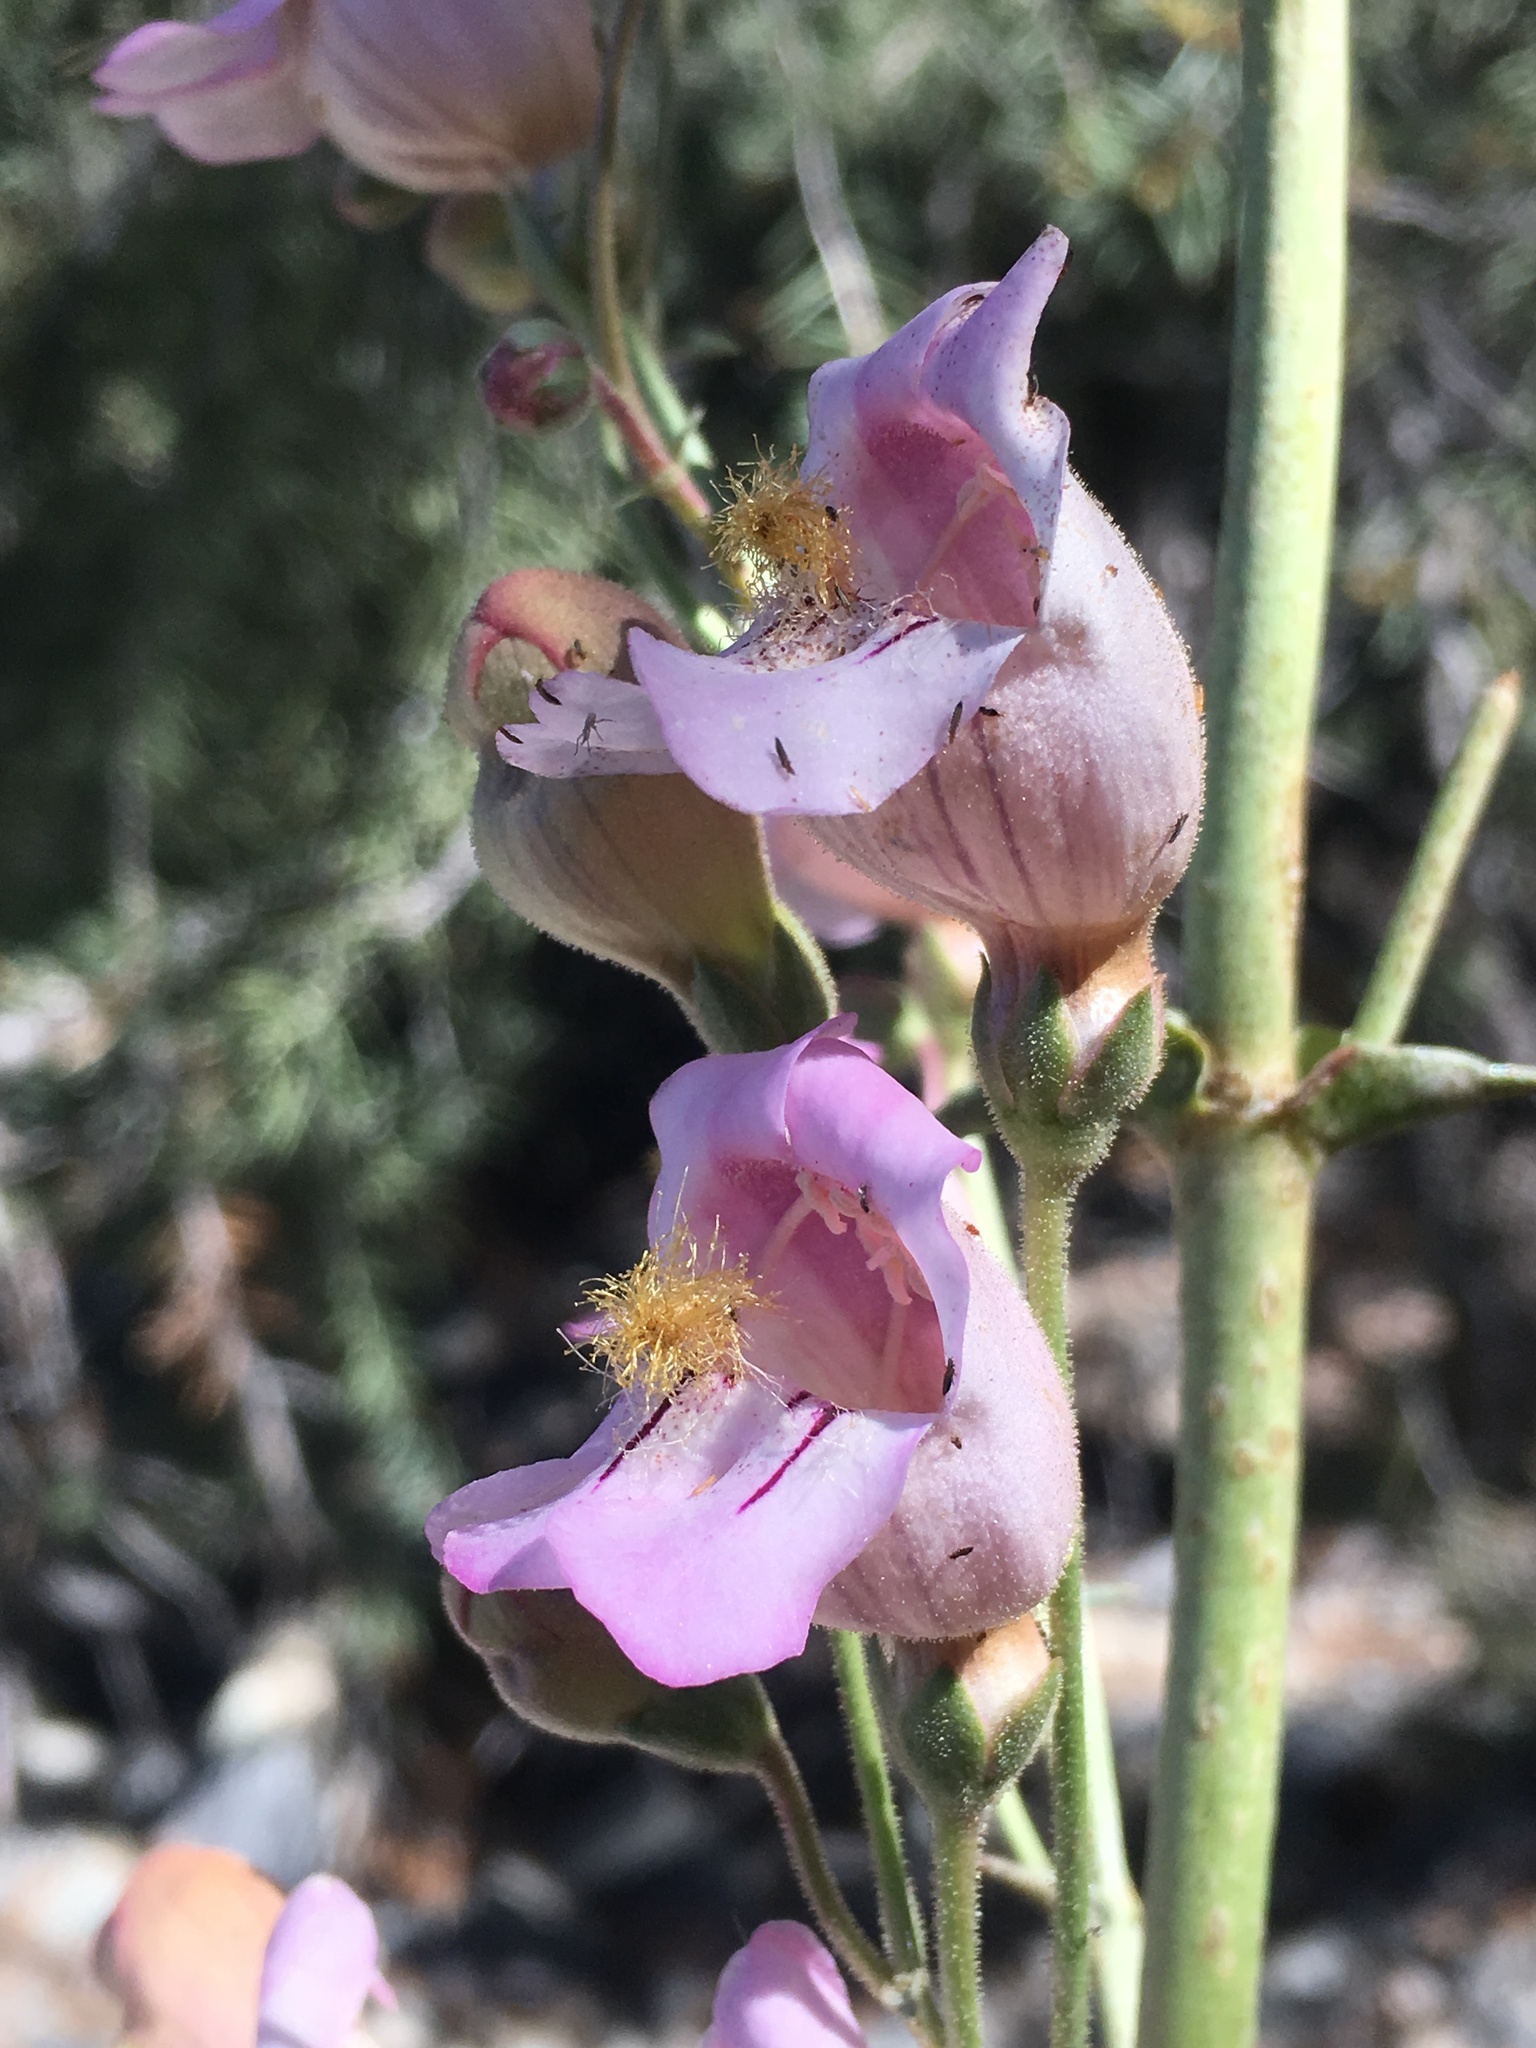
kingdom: Plantae
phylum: Tracheophyta
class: Magnoliopsida
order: Lamiales
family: Plantaginaceae
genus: Penstemon
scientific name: Penstemon palmeri
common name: Palmer penstemon
